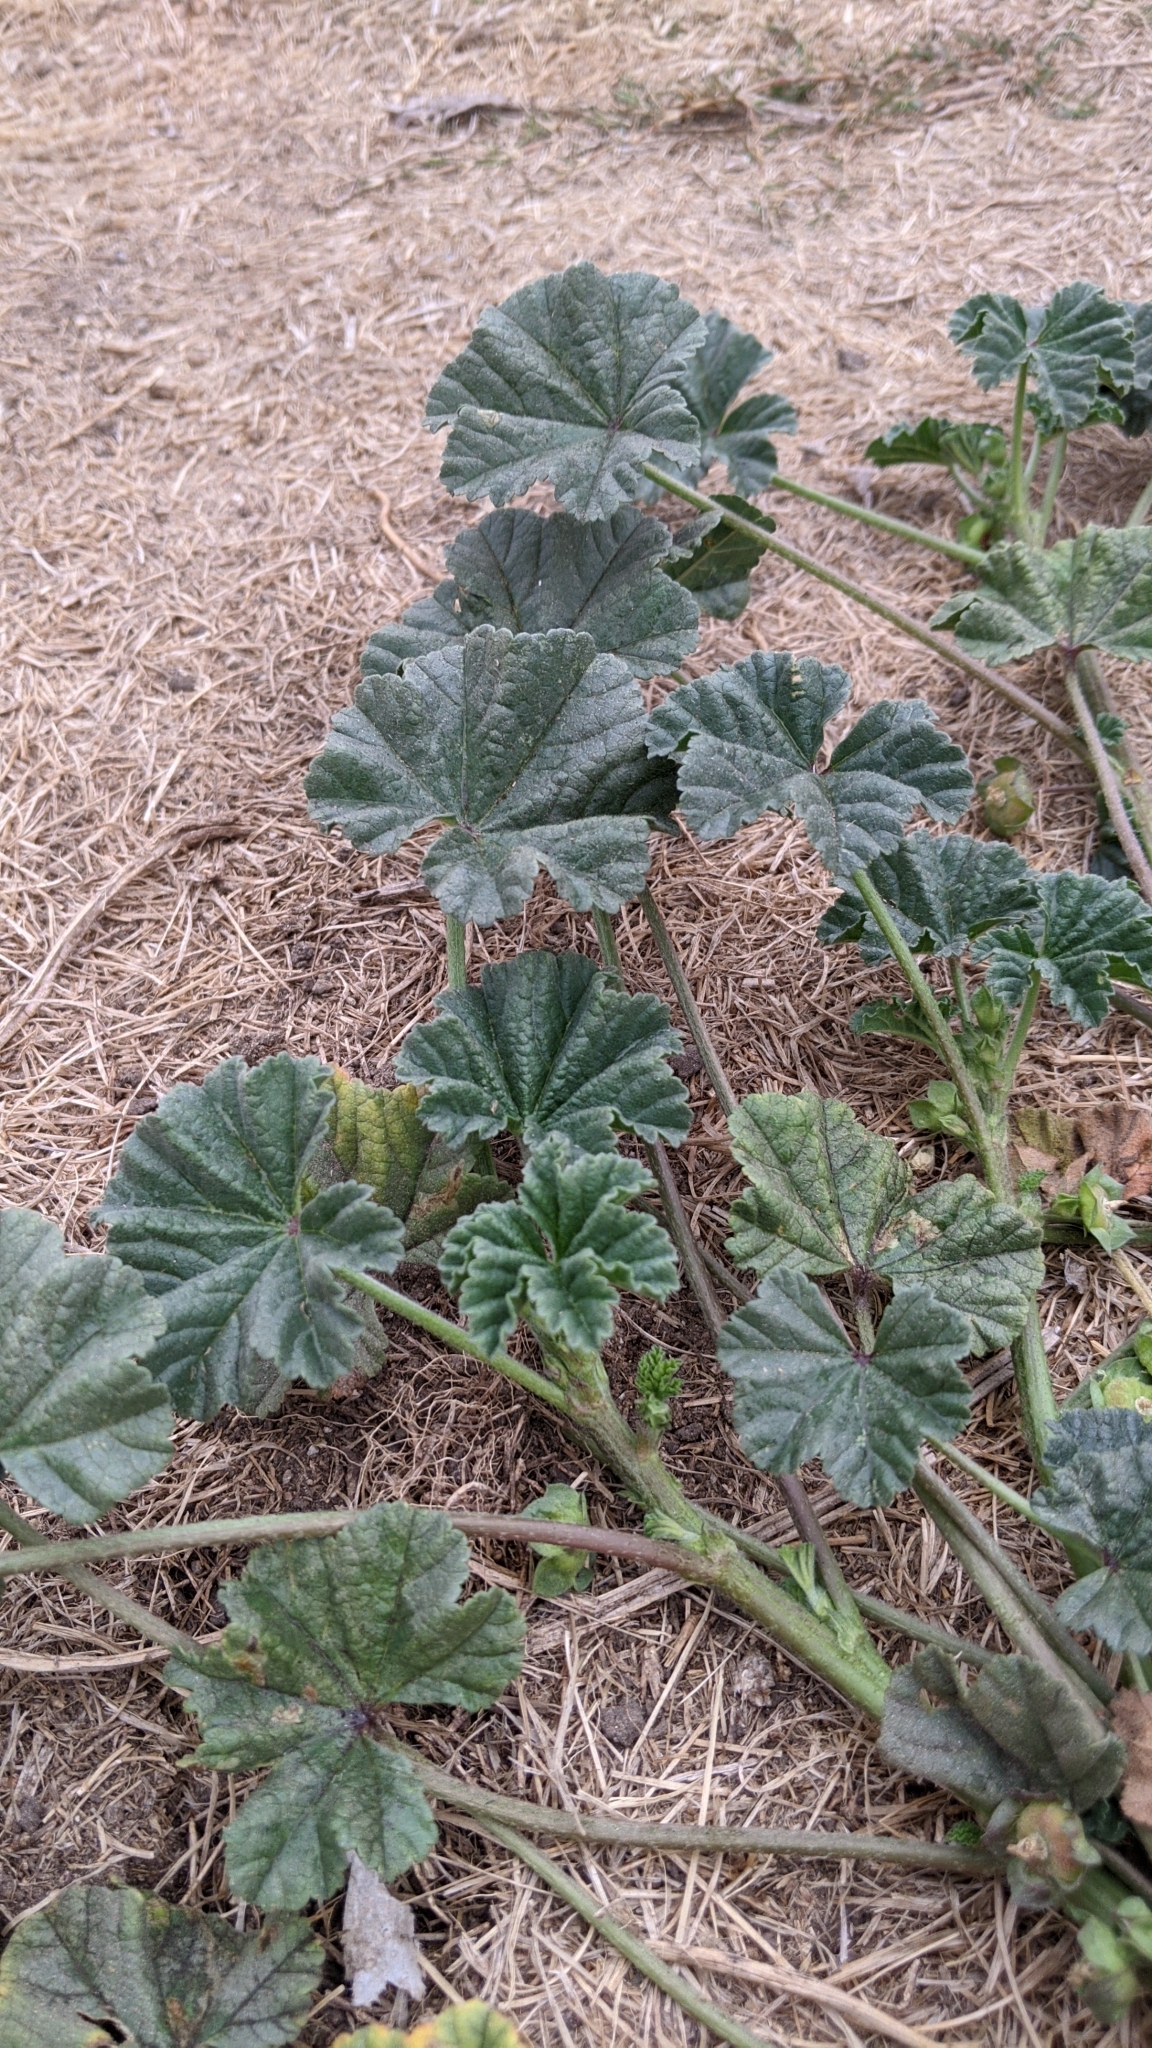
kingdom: Plantae
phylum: Tracheophyta
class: Magnoliopsida
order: Malvales
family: Malvaceae
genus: Malva
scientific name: Malva parviflora
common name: Least mallow
